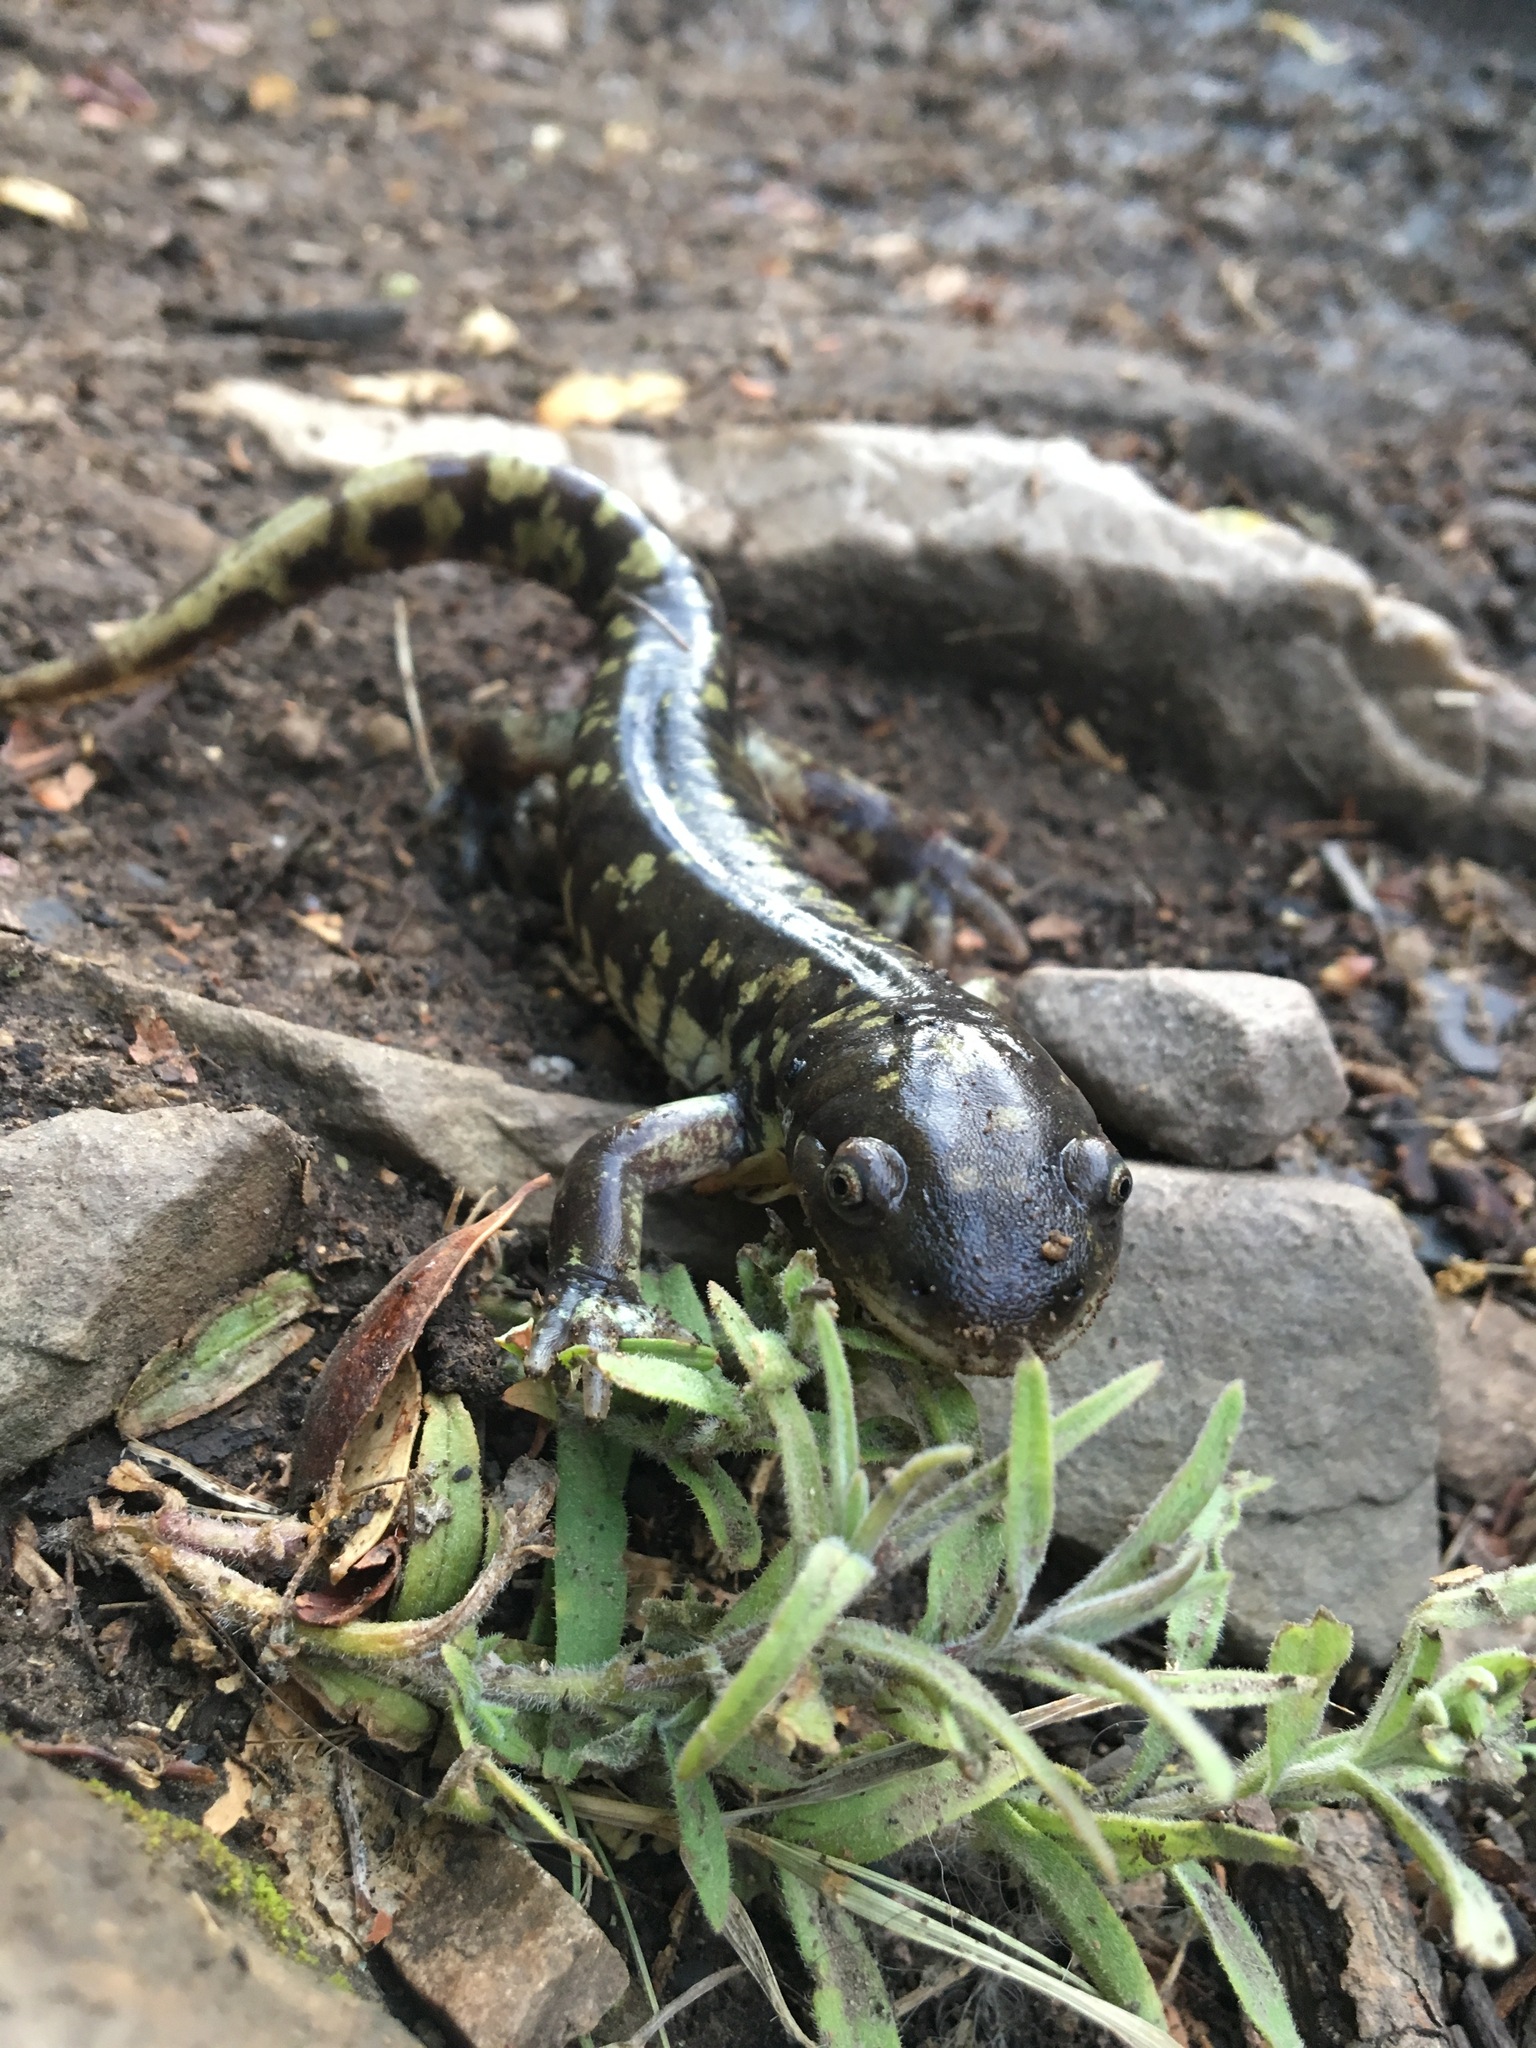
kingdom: Animalia
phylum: Chordata
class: Amphibia
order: Caudata
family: Ambystomatidae
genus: Ambystoma
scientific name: Ambystoma mavortium
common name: Western tiger salamander
